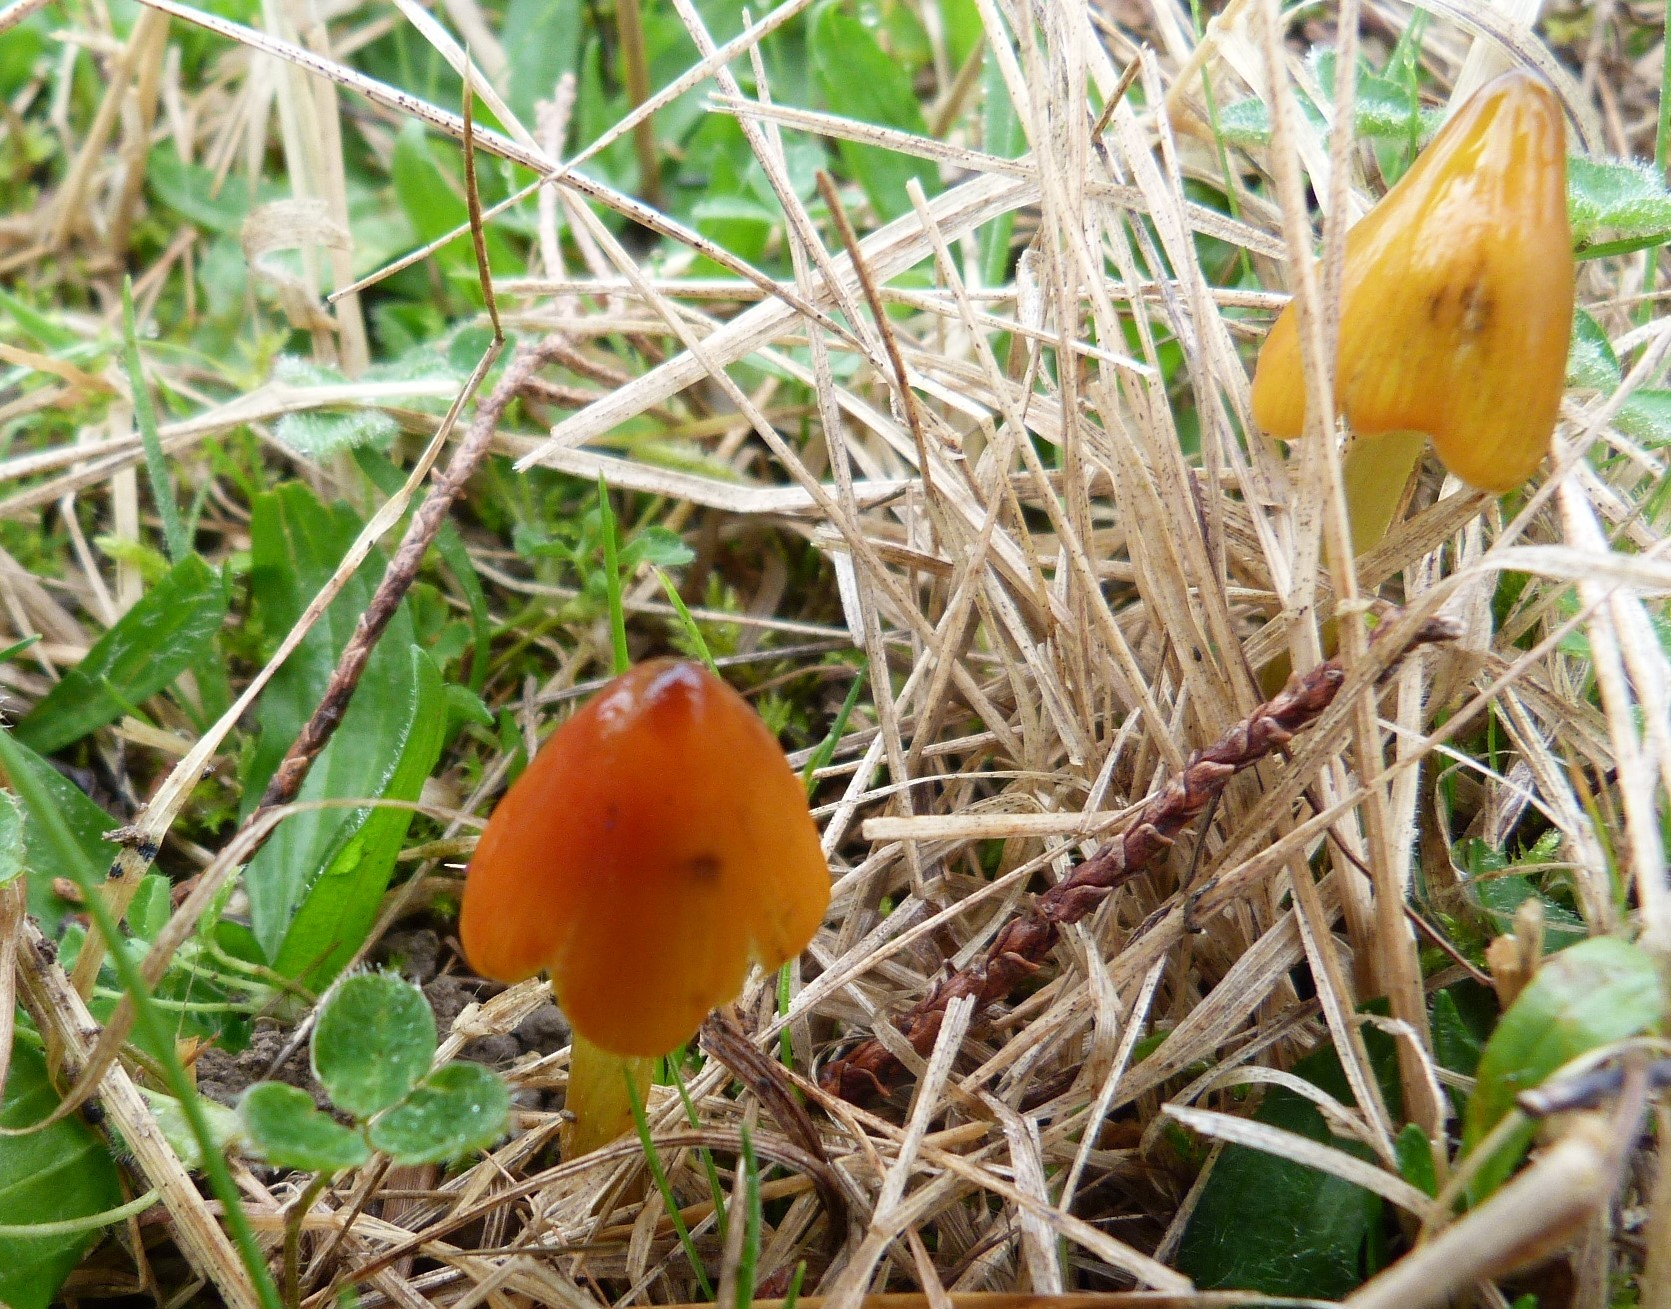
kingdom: Fungi
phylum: Basidiomycota
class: Agaricomycetes
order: Agaricales
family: Hygrophoraceae
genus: Hygrocybe
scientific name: Hygrocybe conica
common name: Blackening wax-cap
